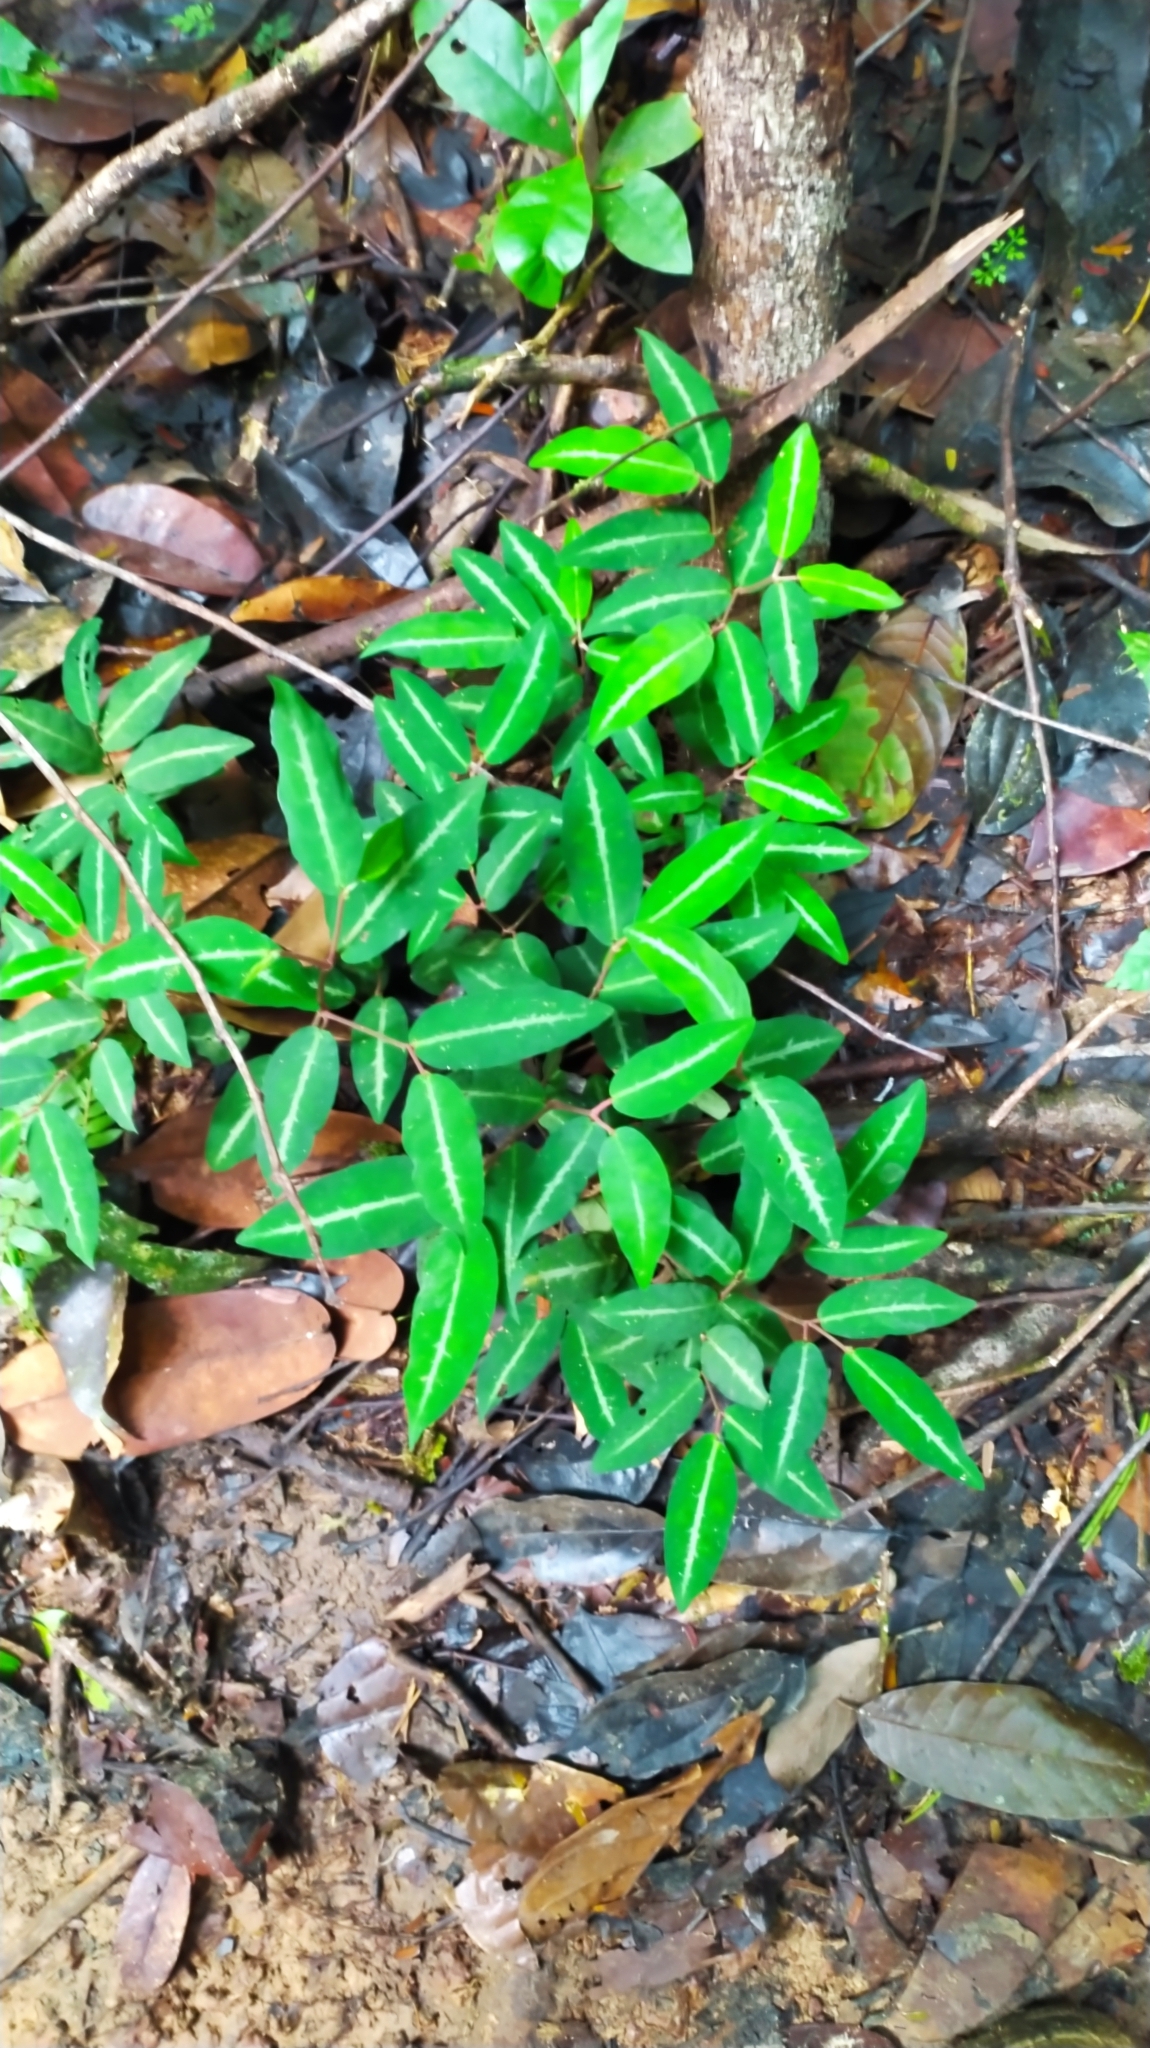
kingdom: Plantae
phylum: Tracheophyta
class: Magnoliopsida
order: Piperales
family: Piperaceae
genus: Piper
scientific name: Piper consanguineum
